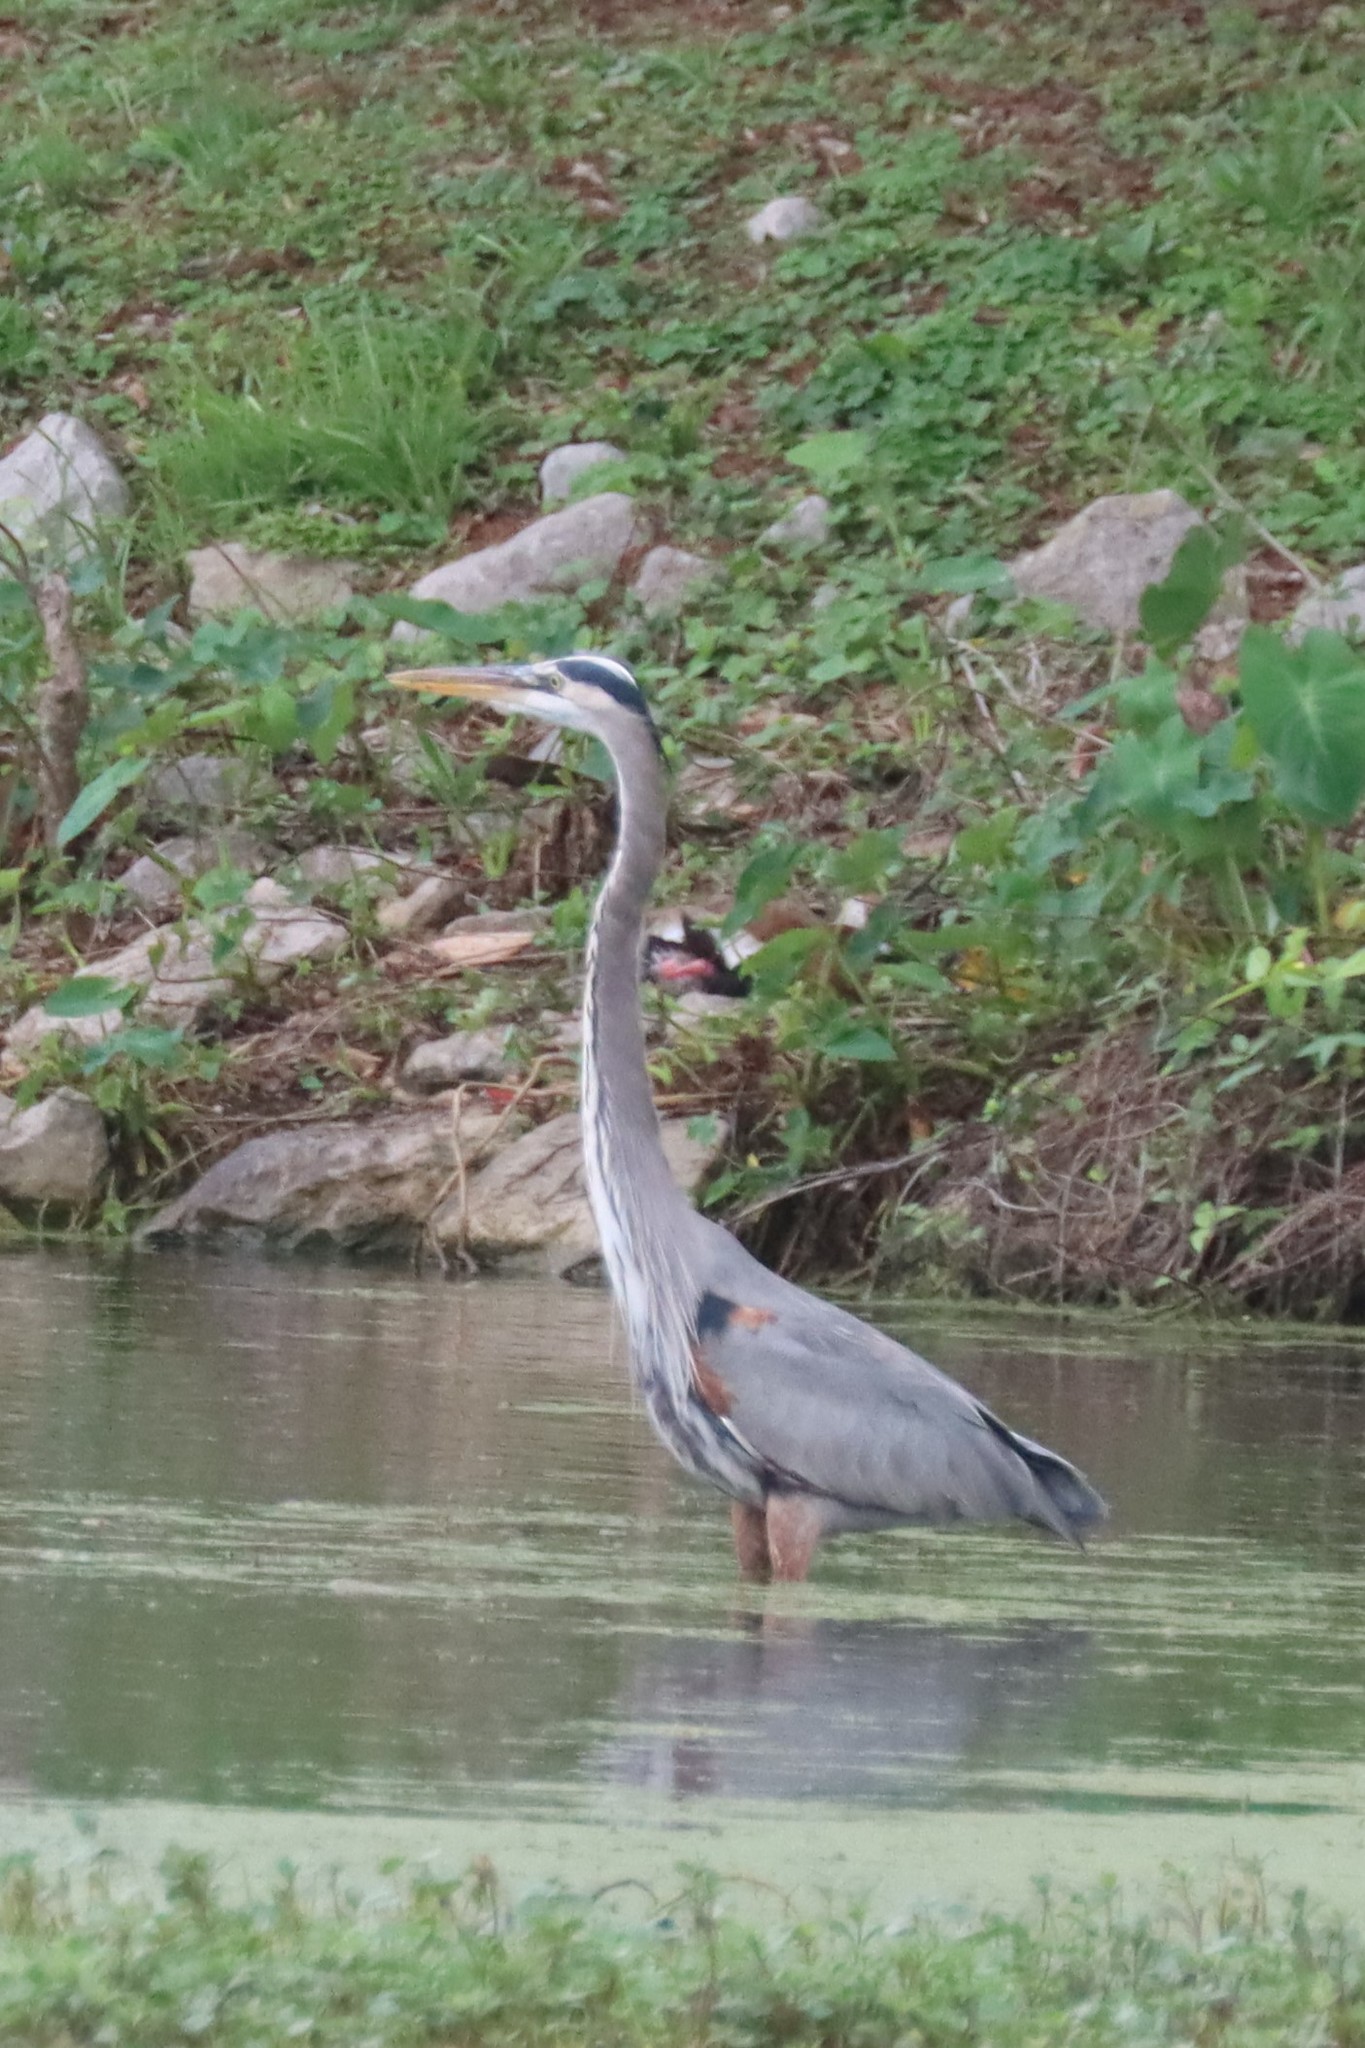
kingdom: Animalia
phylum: Chordata
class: Aves
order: Pelecaniformes
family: Ardeidae
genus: Ardea
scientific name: Ardea herodias
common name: Great blue heron
